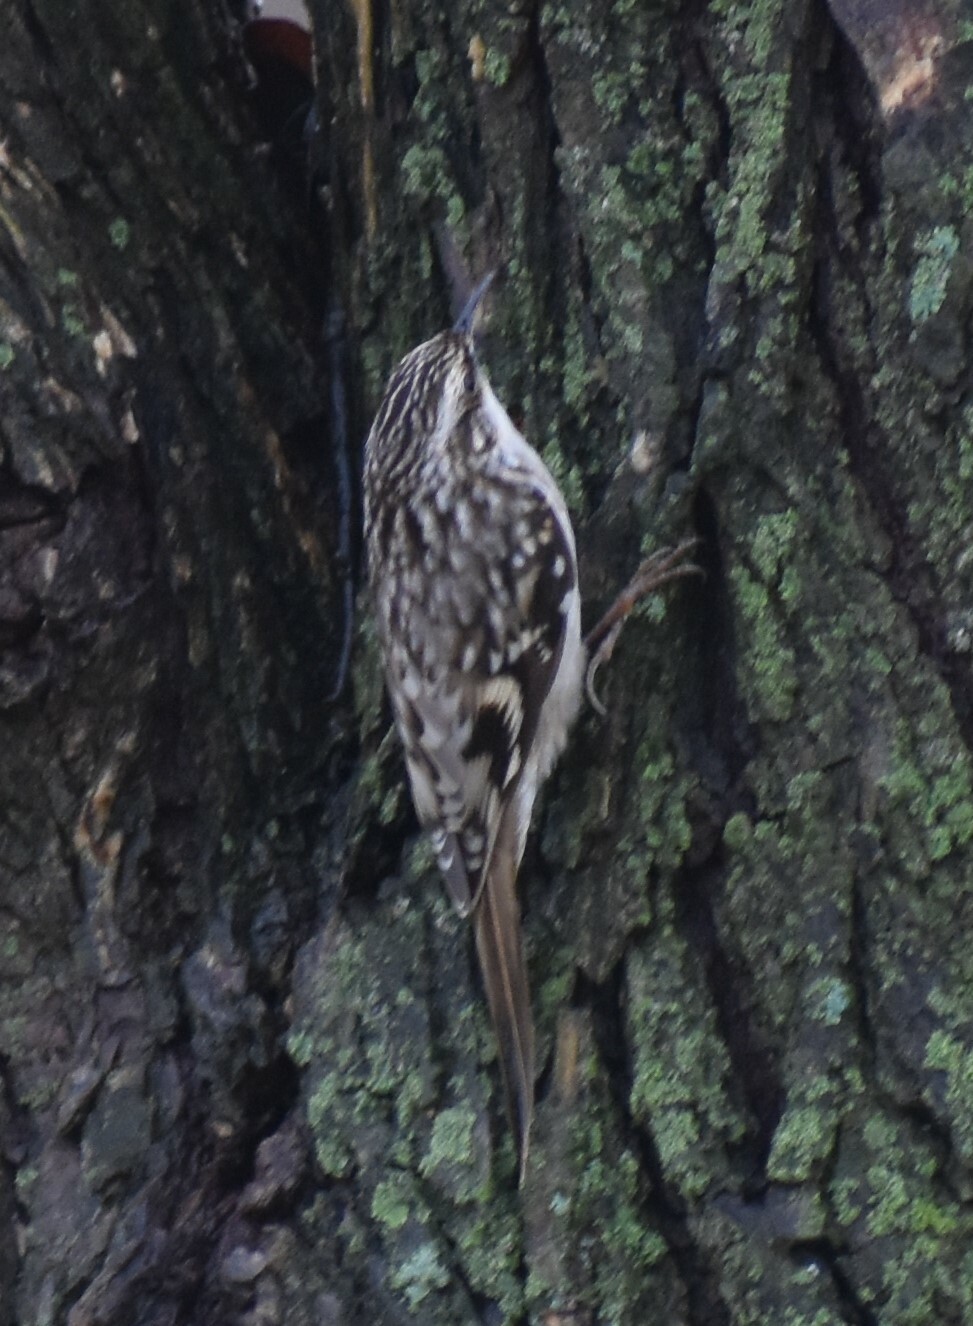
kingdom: Animalia
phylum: Chordata
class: Aves
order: Passeriformes
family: Certhiidae
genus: Certhia
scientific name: Certhia americana
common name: Brown creeper
